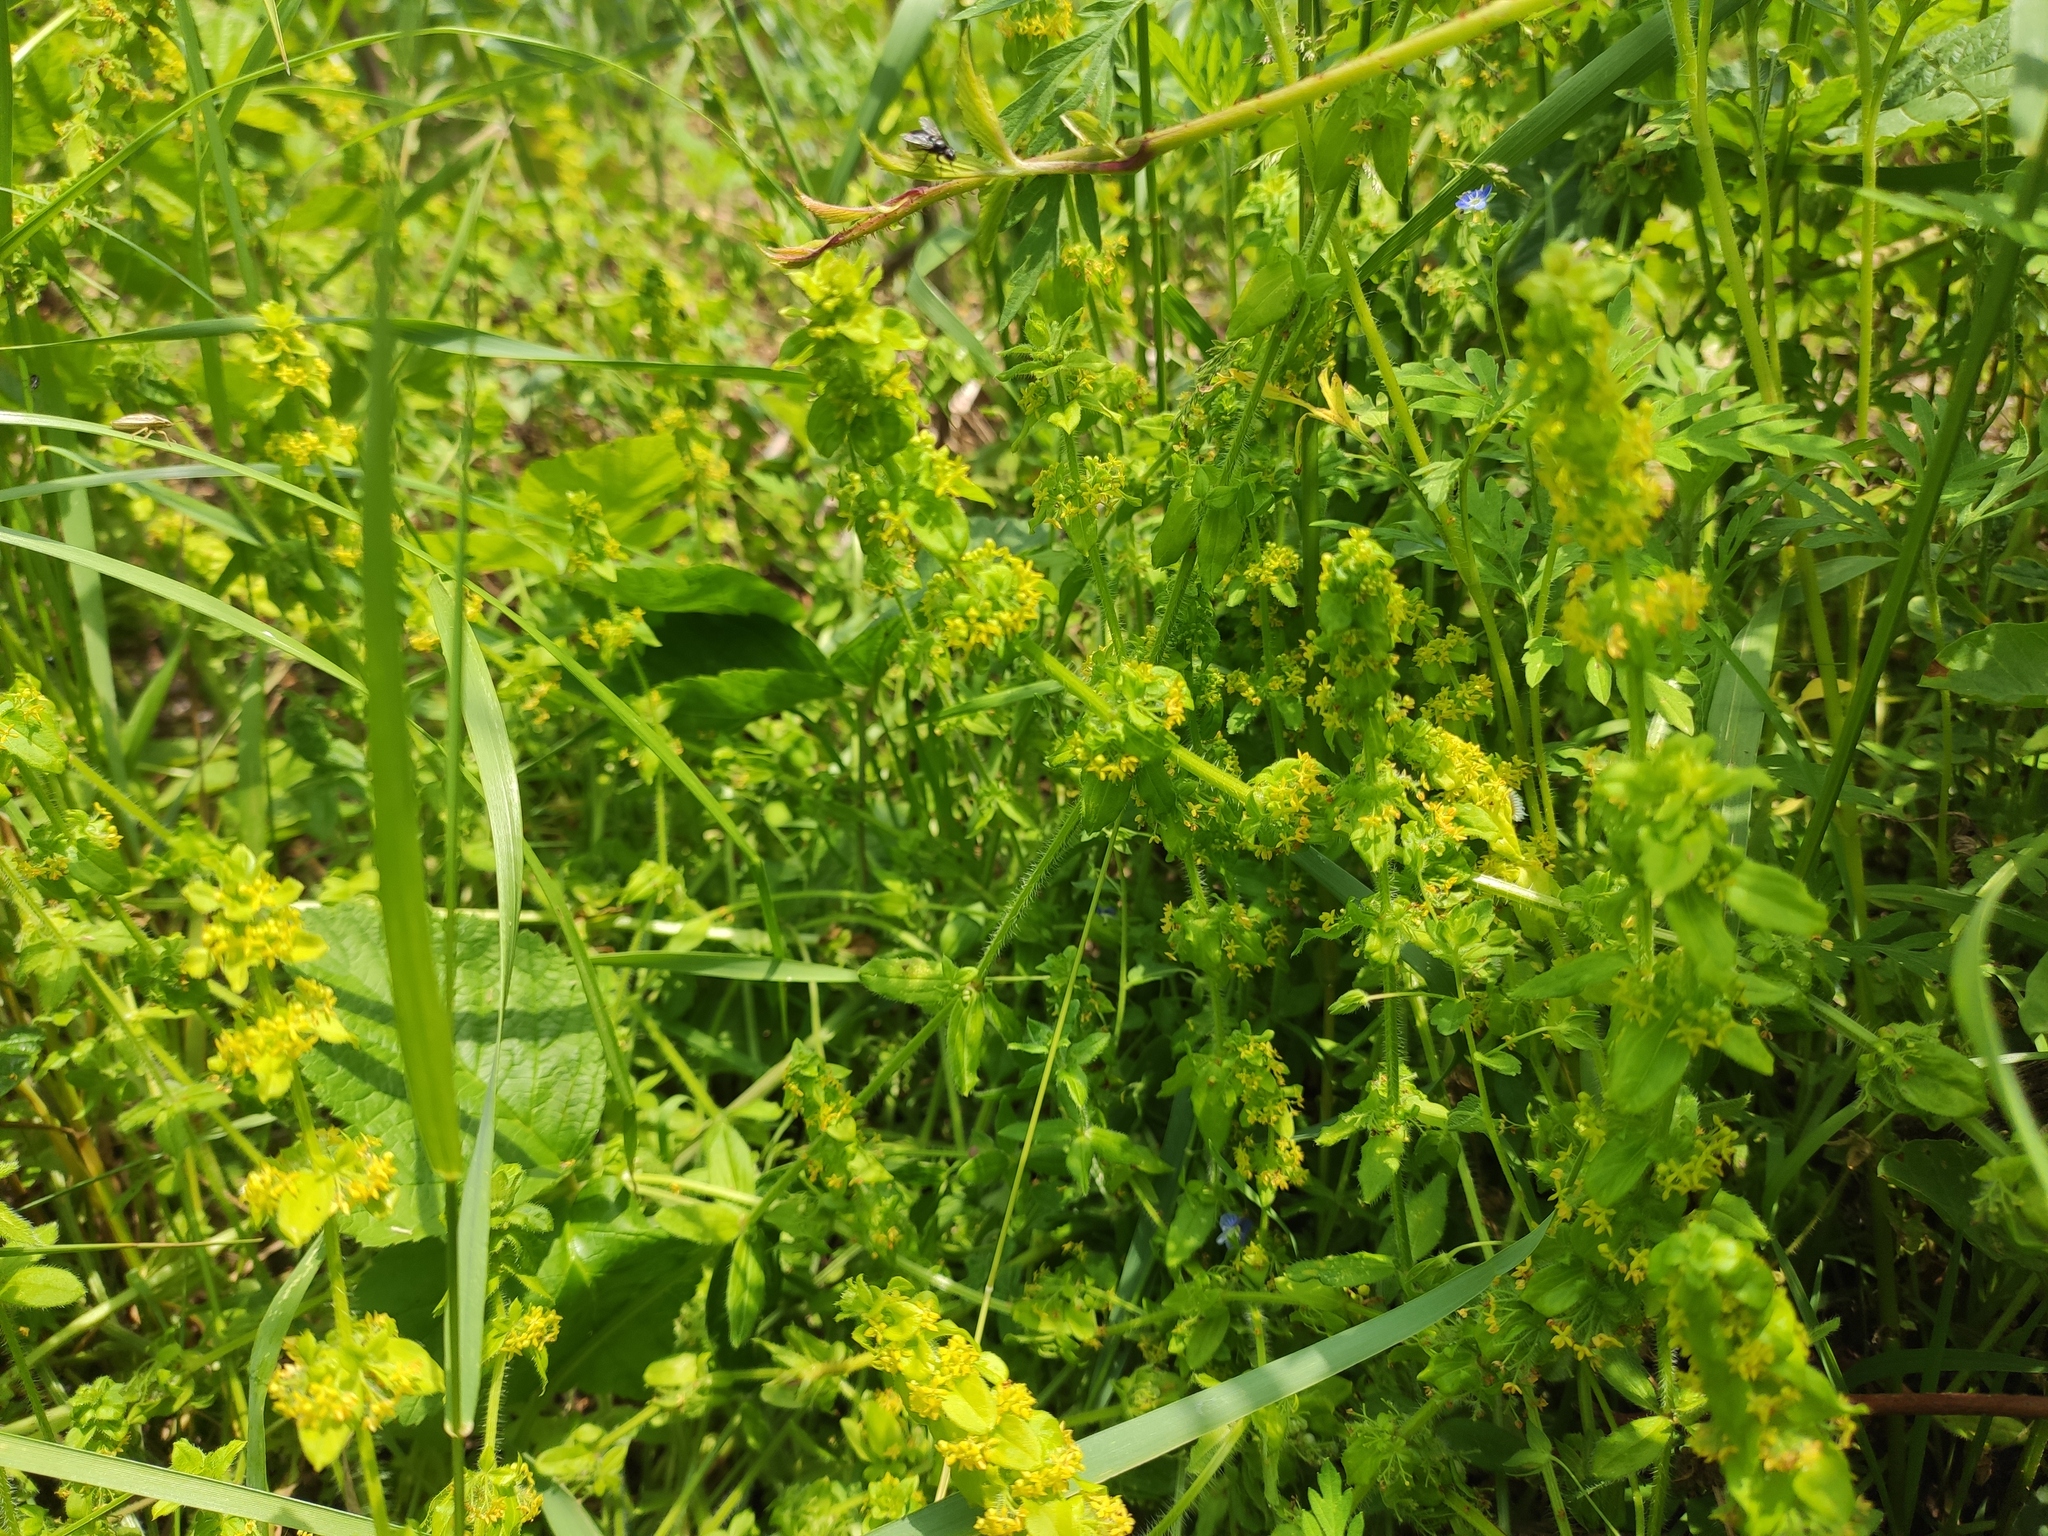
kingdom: Plantae
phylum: Tracheophyta
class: Magnoliopsida
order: Gentianales
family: Rubiaceae
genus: Cruciata
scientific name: Cruciata laevipes
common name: Crosswort
